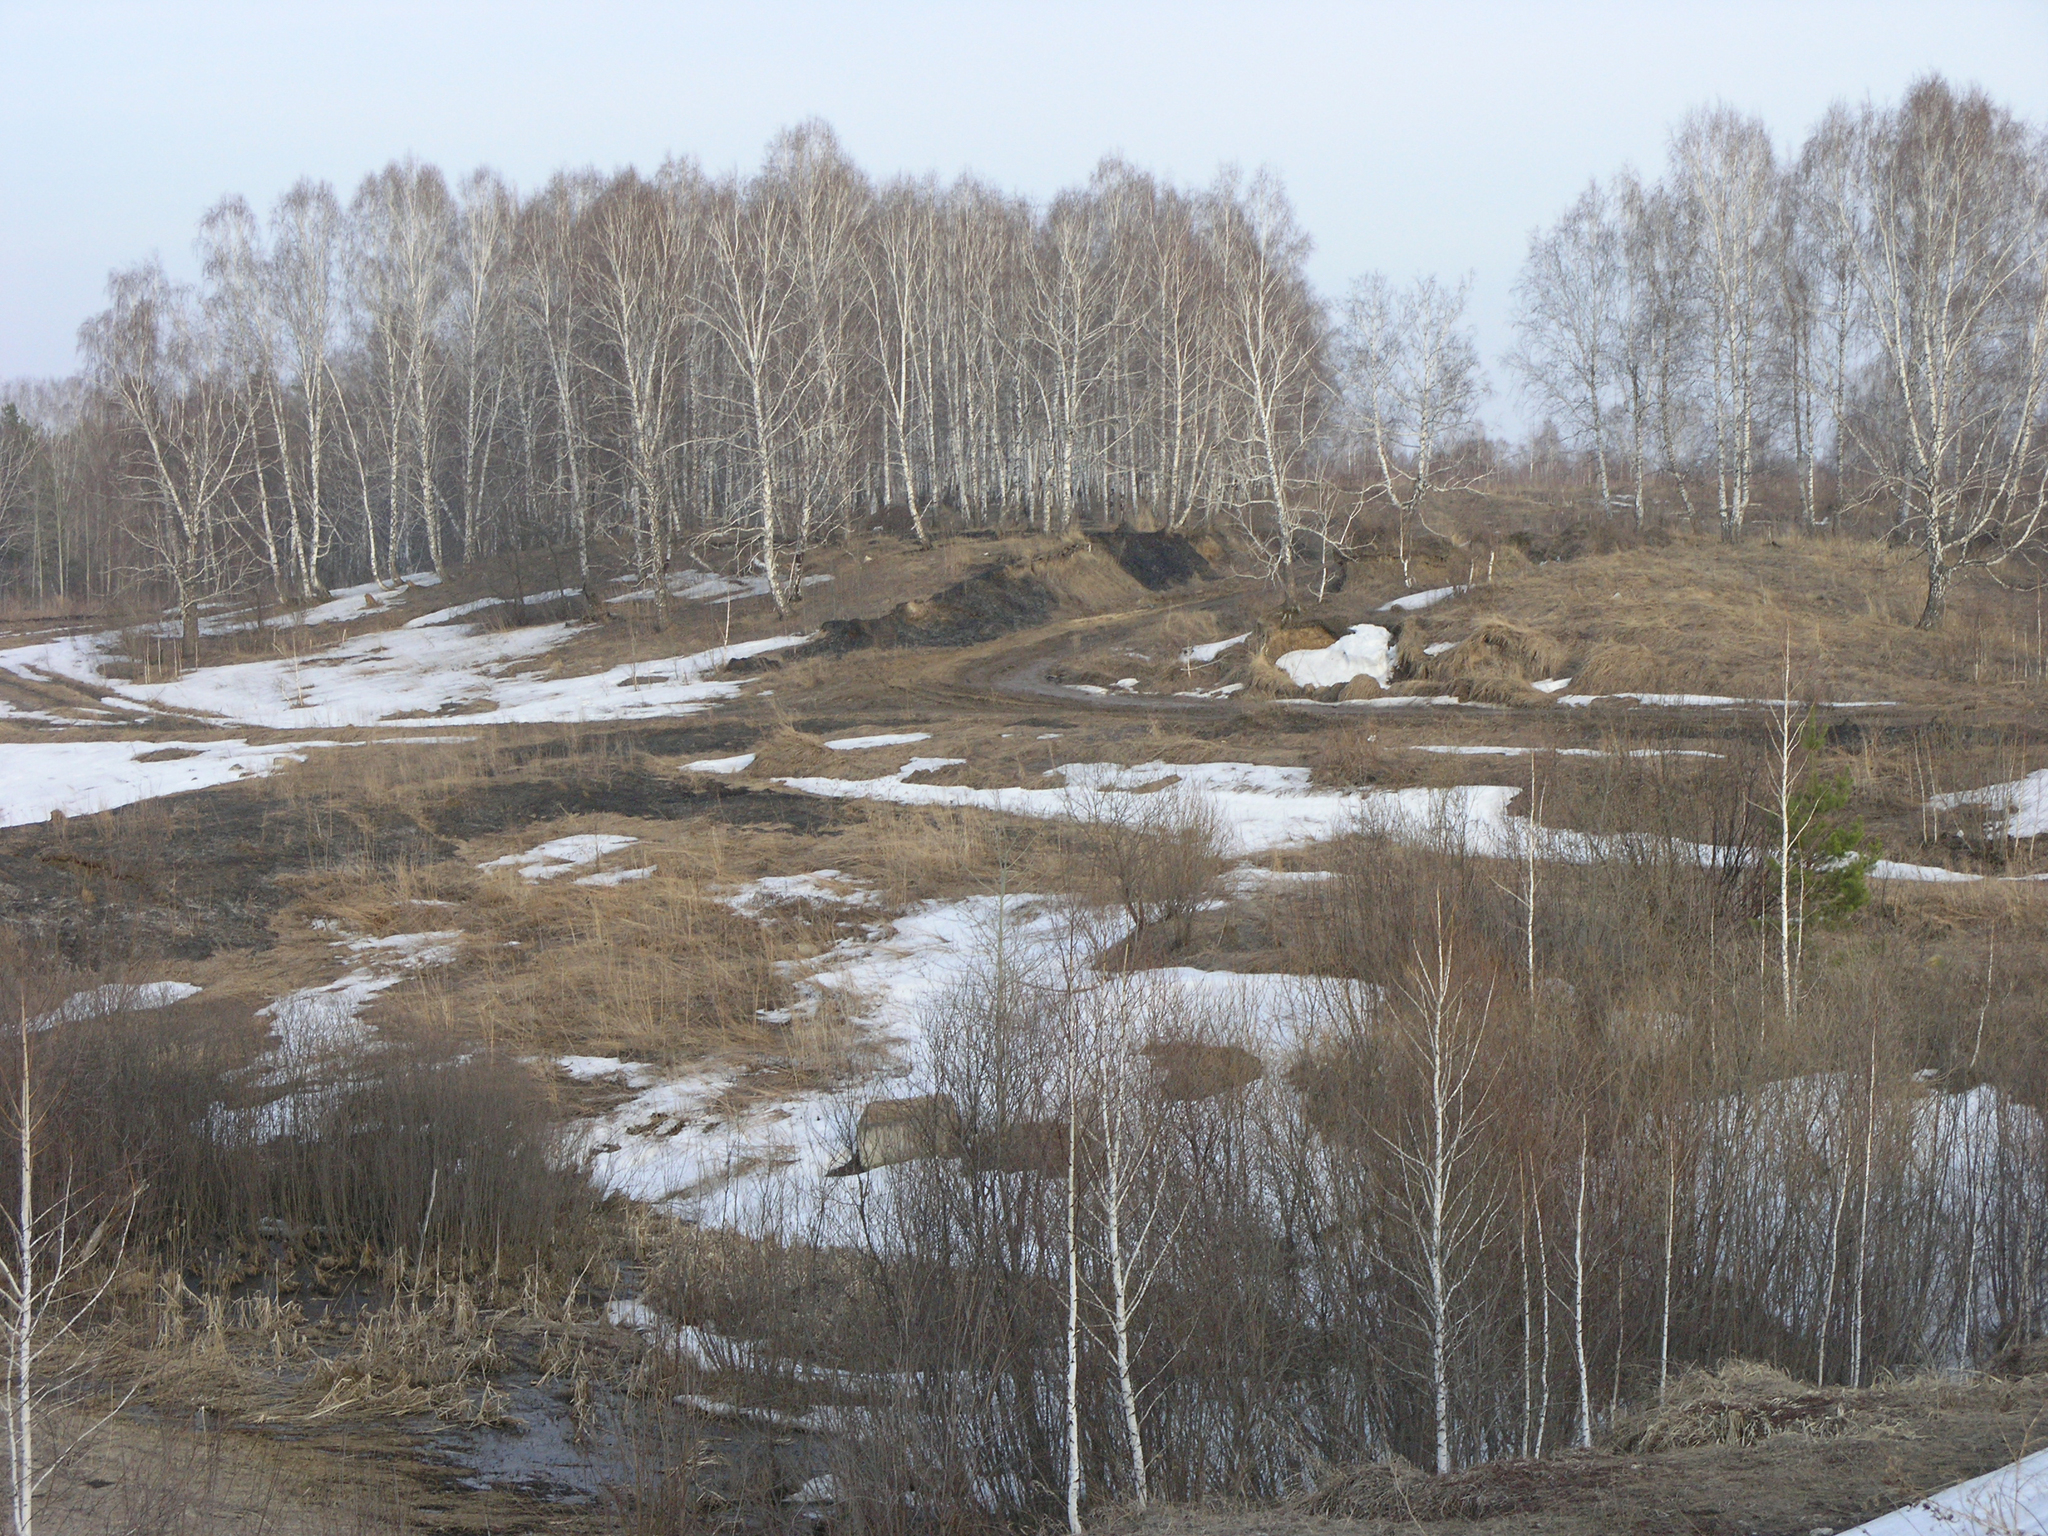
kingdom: Plantae
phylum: Tracheophyta
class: Magnoliopsida
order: Fagales
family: Betulaceae
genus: Betula
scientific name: Betula pendula
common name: Silver birch
